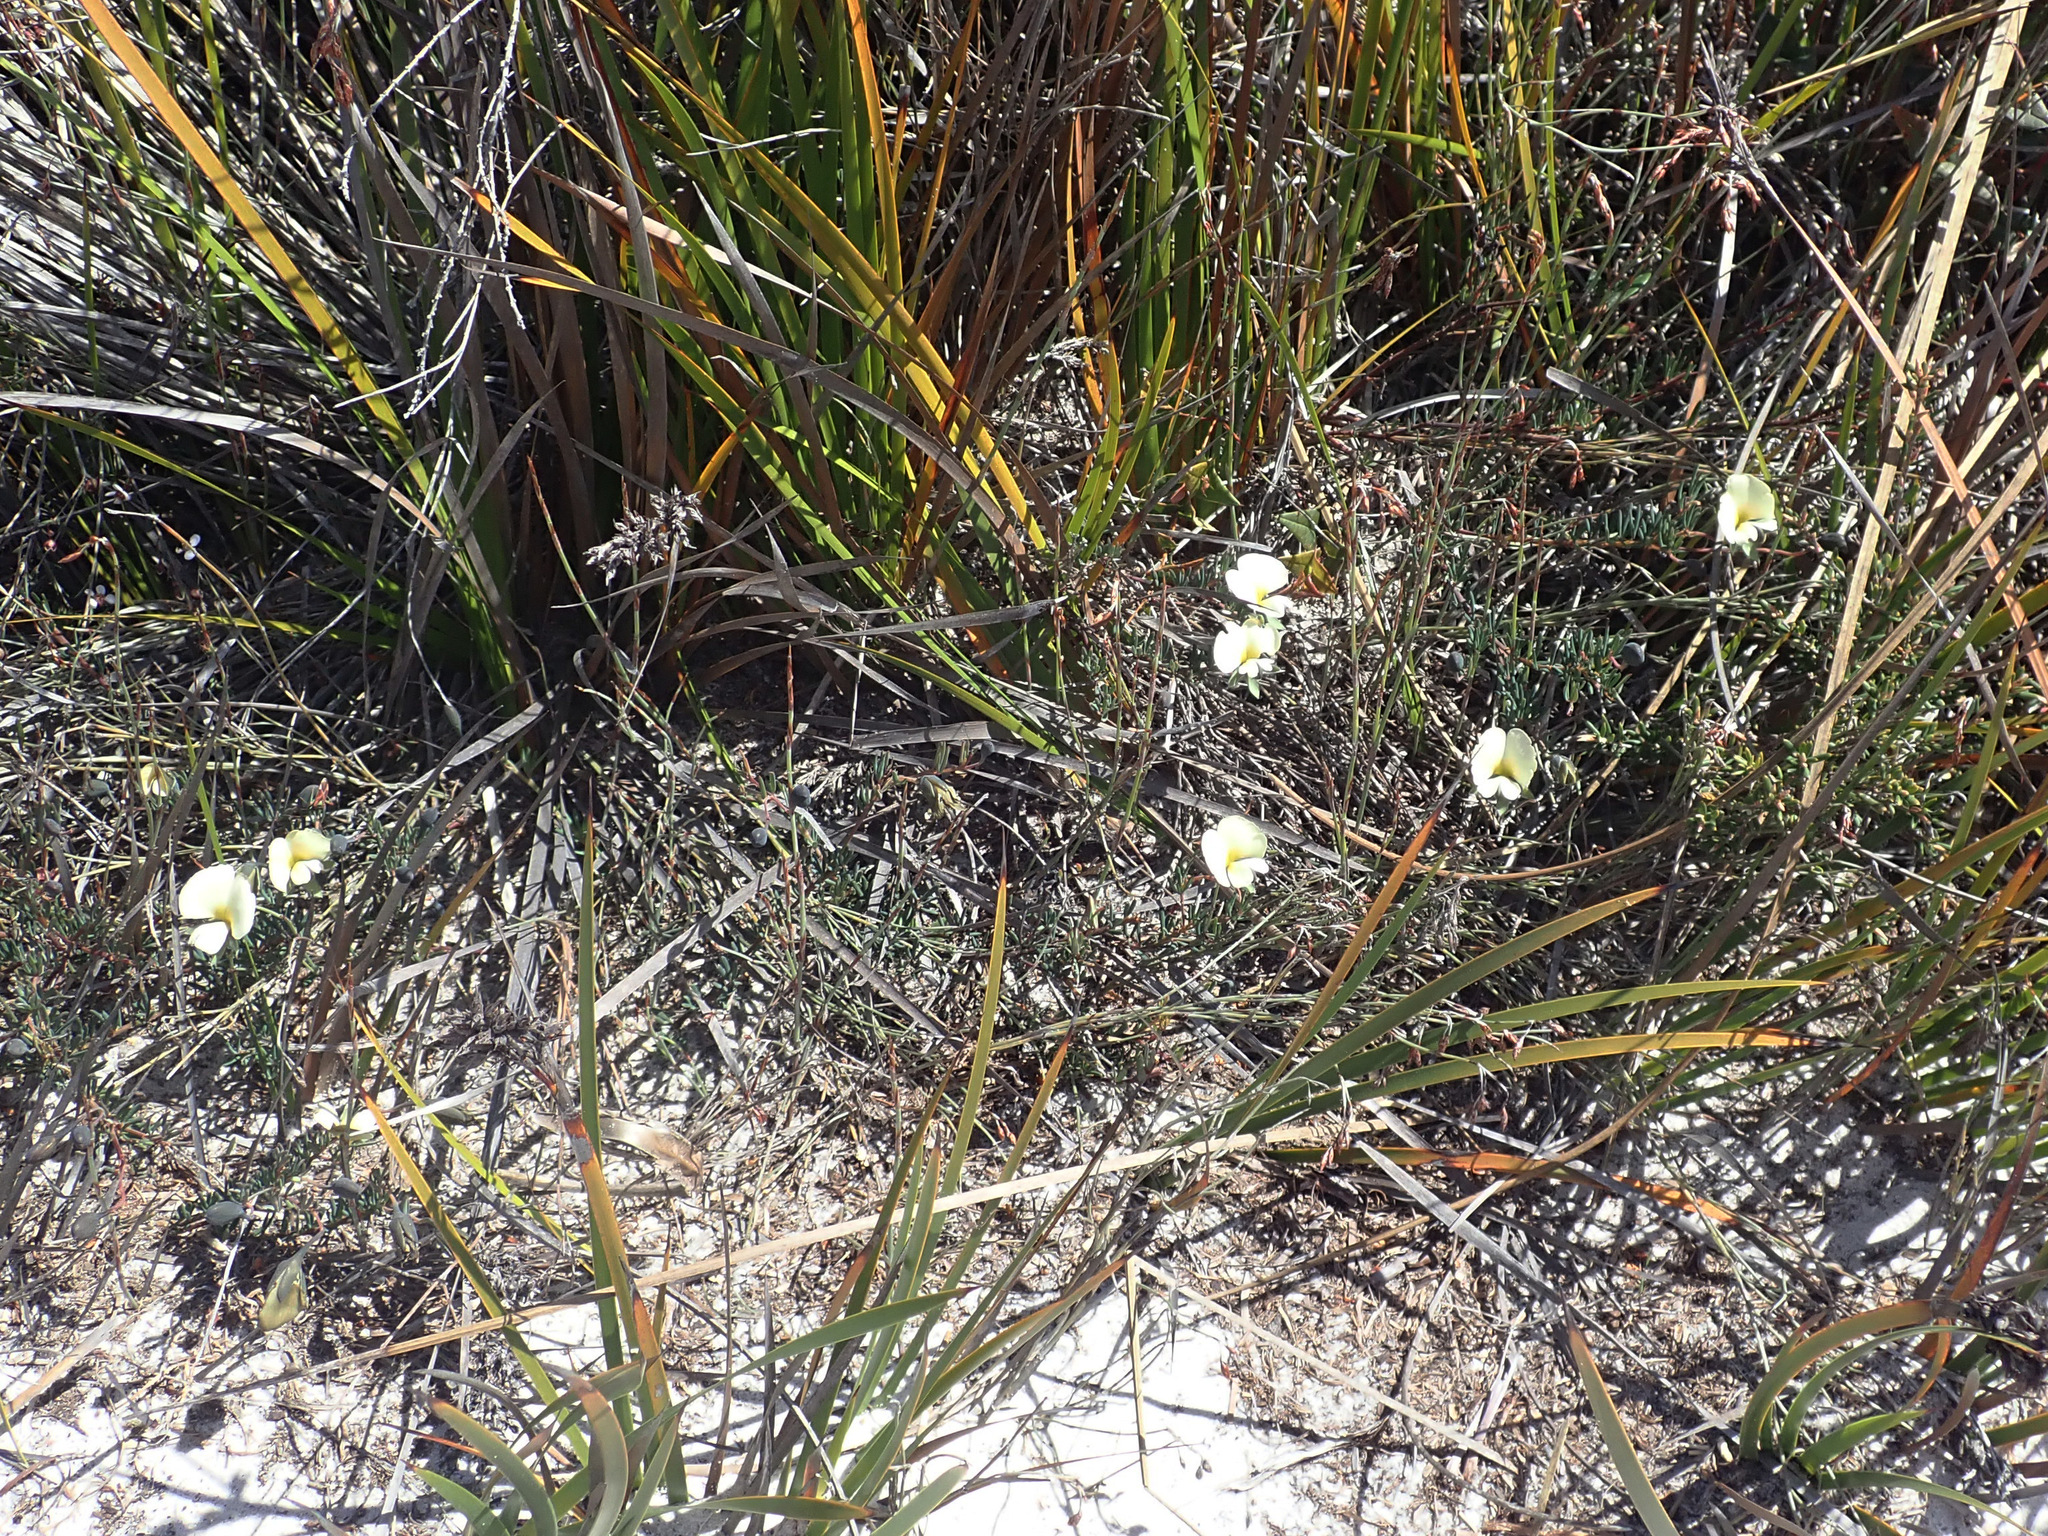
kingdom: Plantae
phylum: Tracheophyta
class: Magnoliopsida
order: Fabales
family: Fabaceae
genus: Gompholobium
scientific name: Gompholobium huegelii
